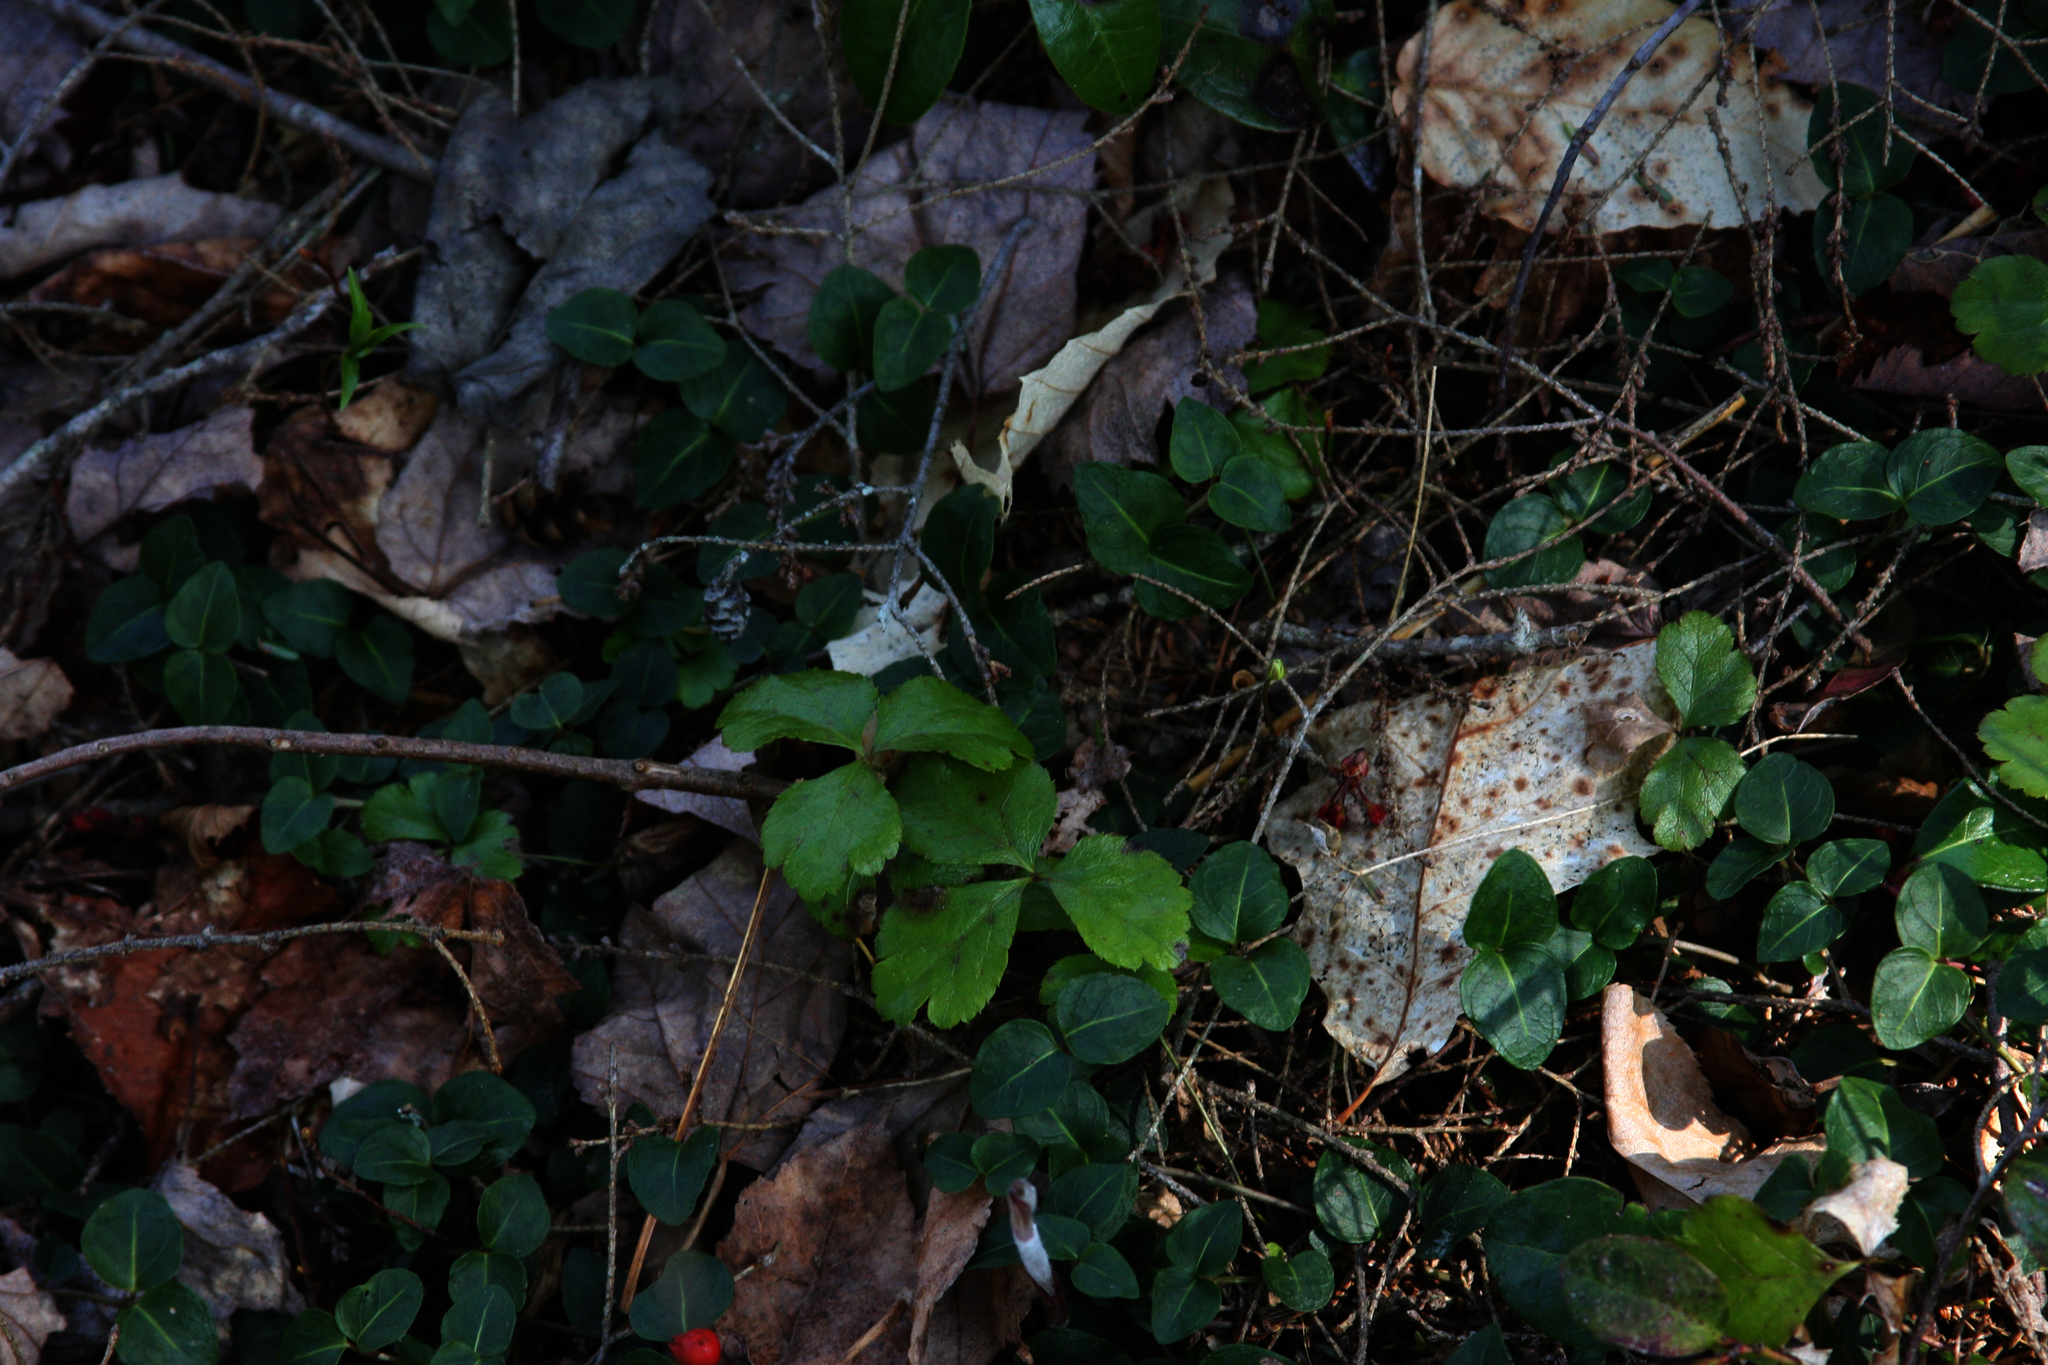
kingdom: Plantae
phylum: Tracheophyta
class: Magnoliopsida
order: Gentianales
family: Rubiaceae
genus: Mitchella
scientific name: Mitchella repens
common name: Partridge-berry
